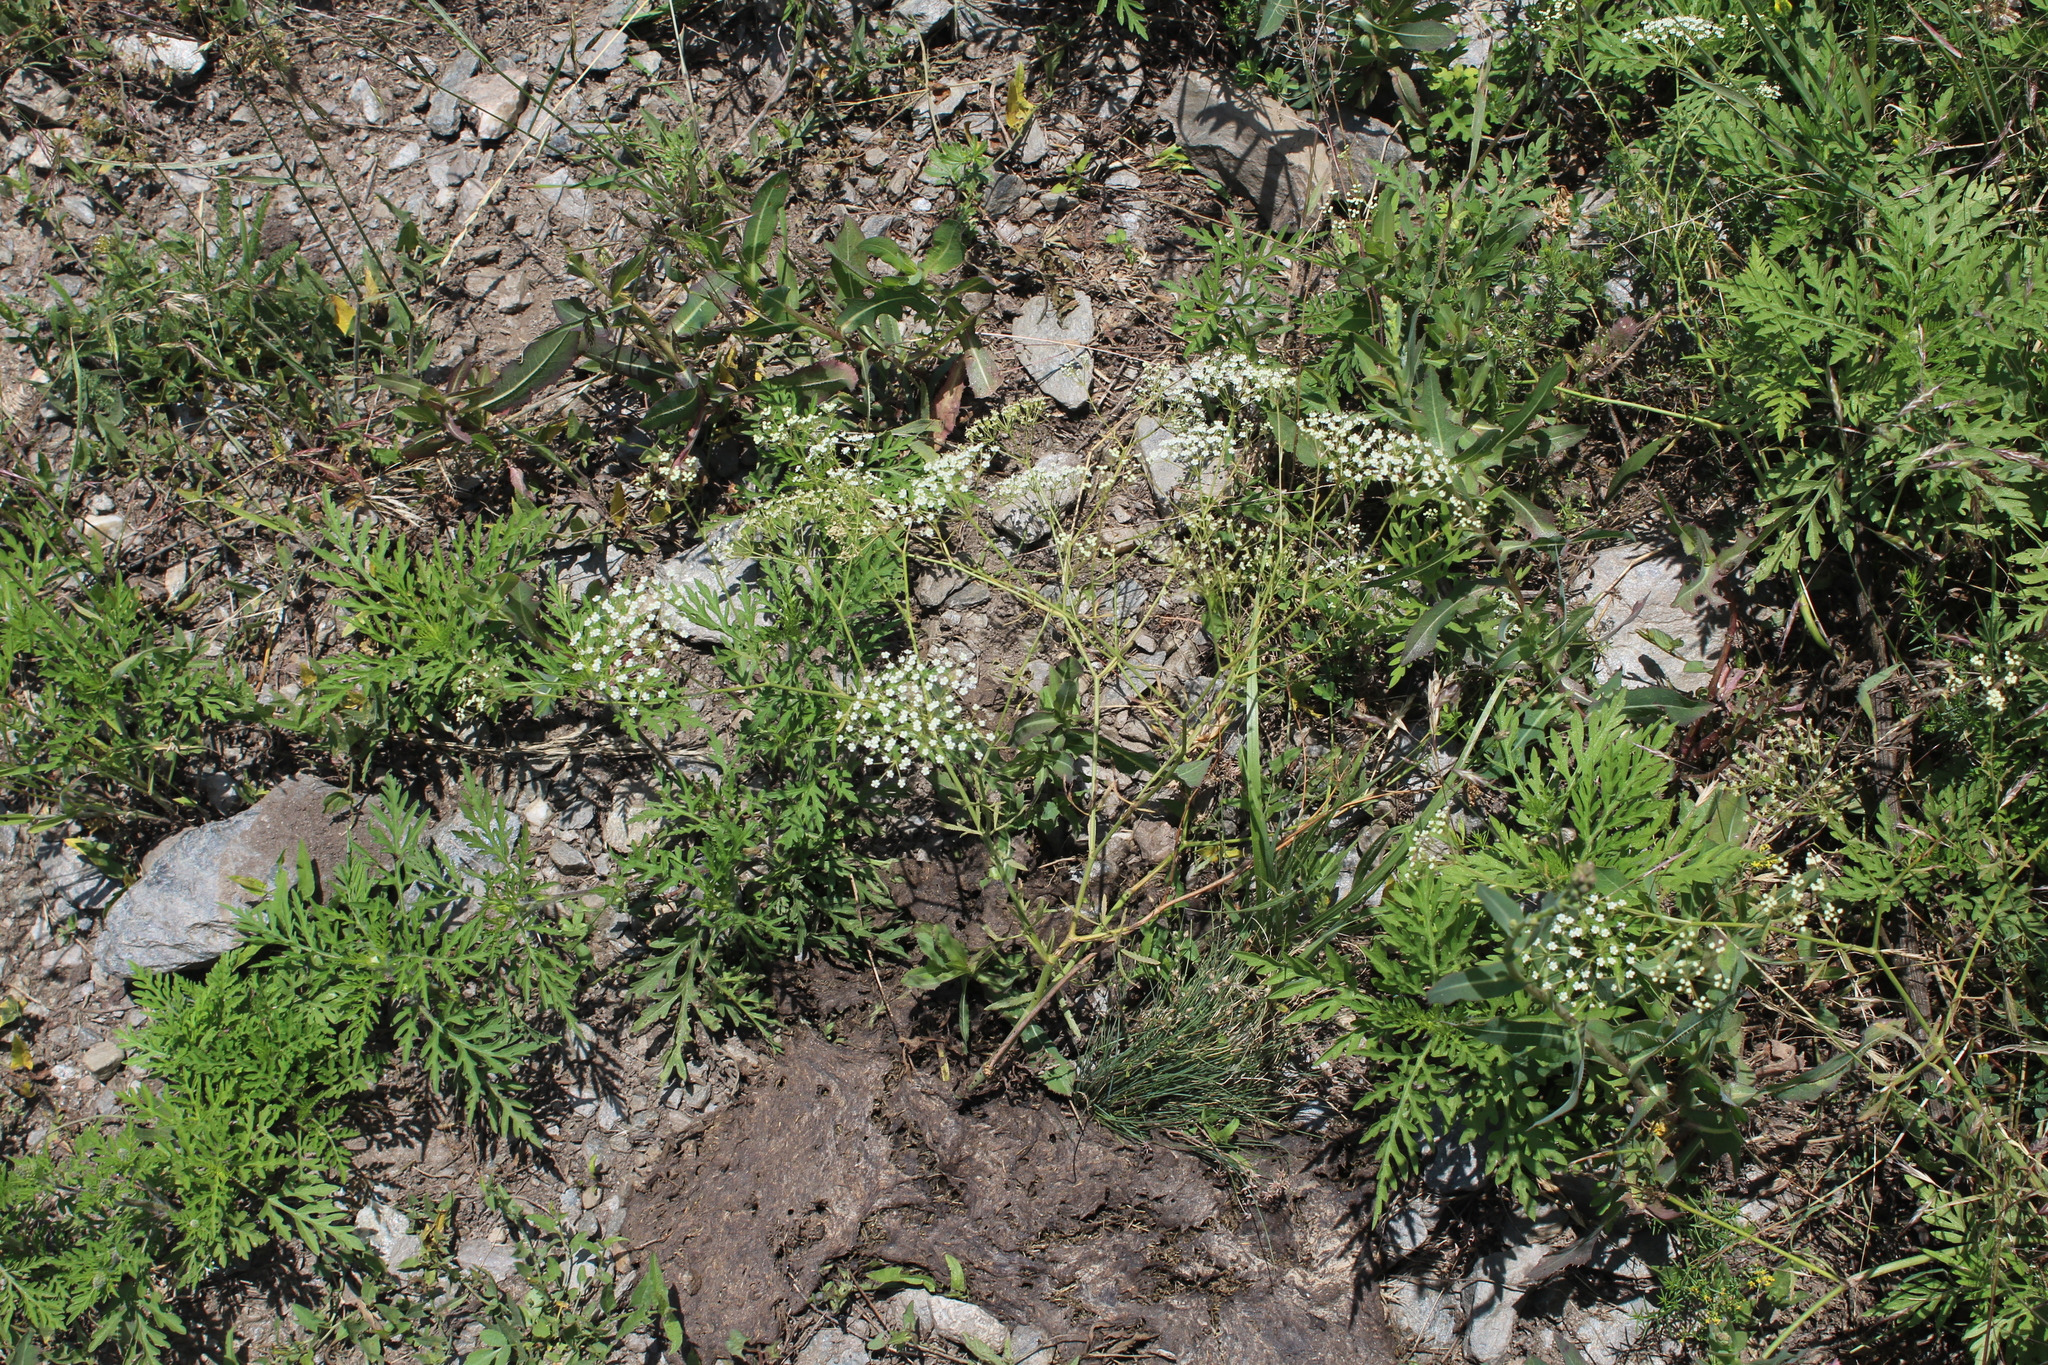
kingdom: Plantae
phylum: Tracheophyta
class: Magnoliopsida
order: Apiales
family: Apiaceae
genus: Falcaria
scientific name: Falcaria vulgaris
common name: Longleaf
